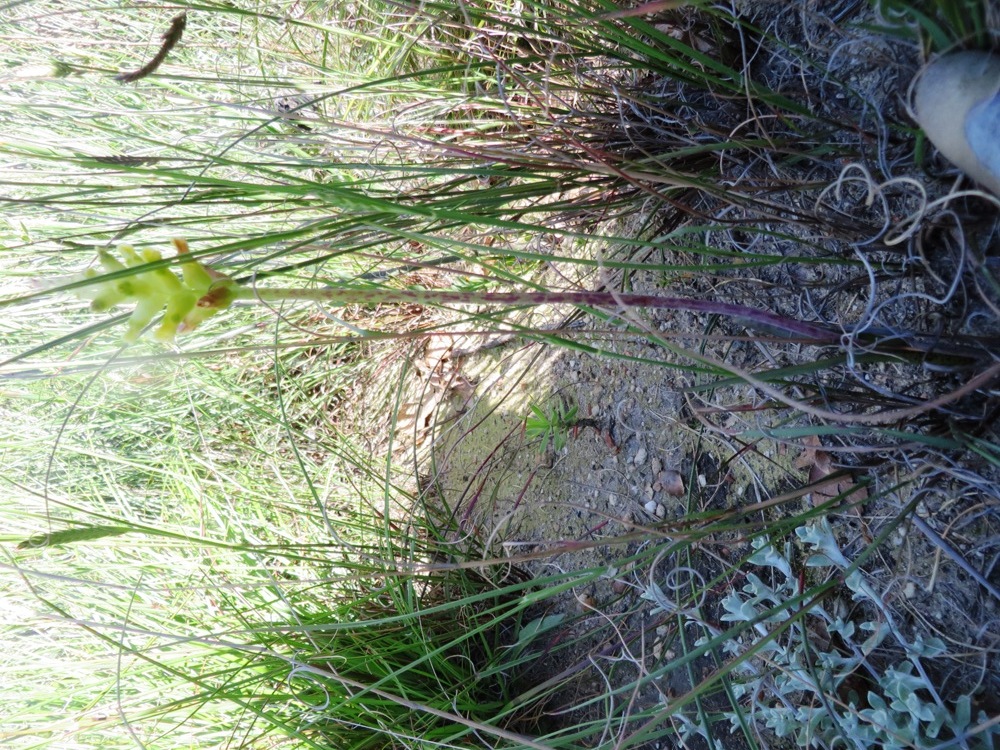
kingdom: Plantae
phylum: Tracheophyta
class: Liliopsida
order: Asparagales
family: Asparagaceae
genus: Lachenalia
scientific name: Lachenalia lutea
